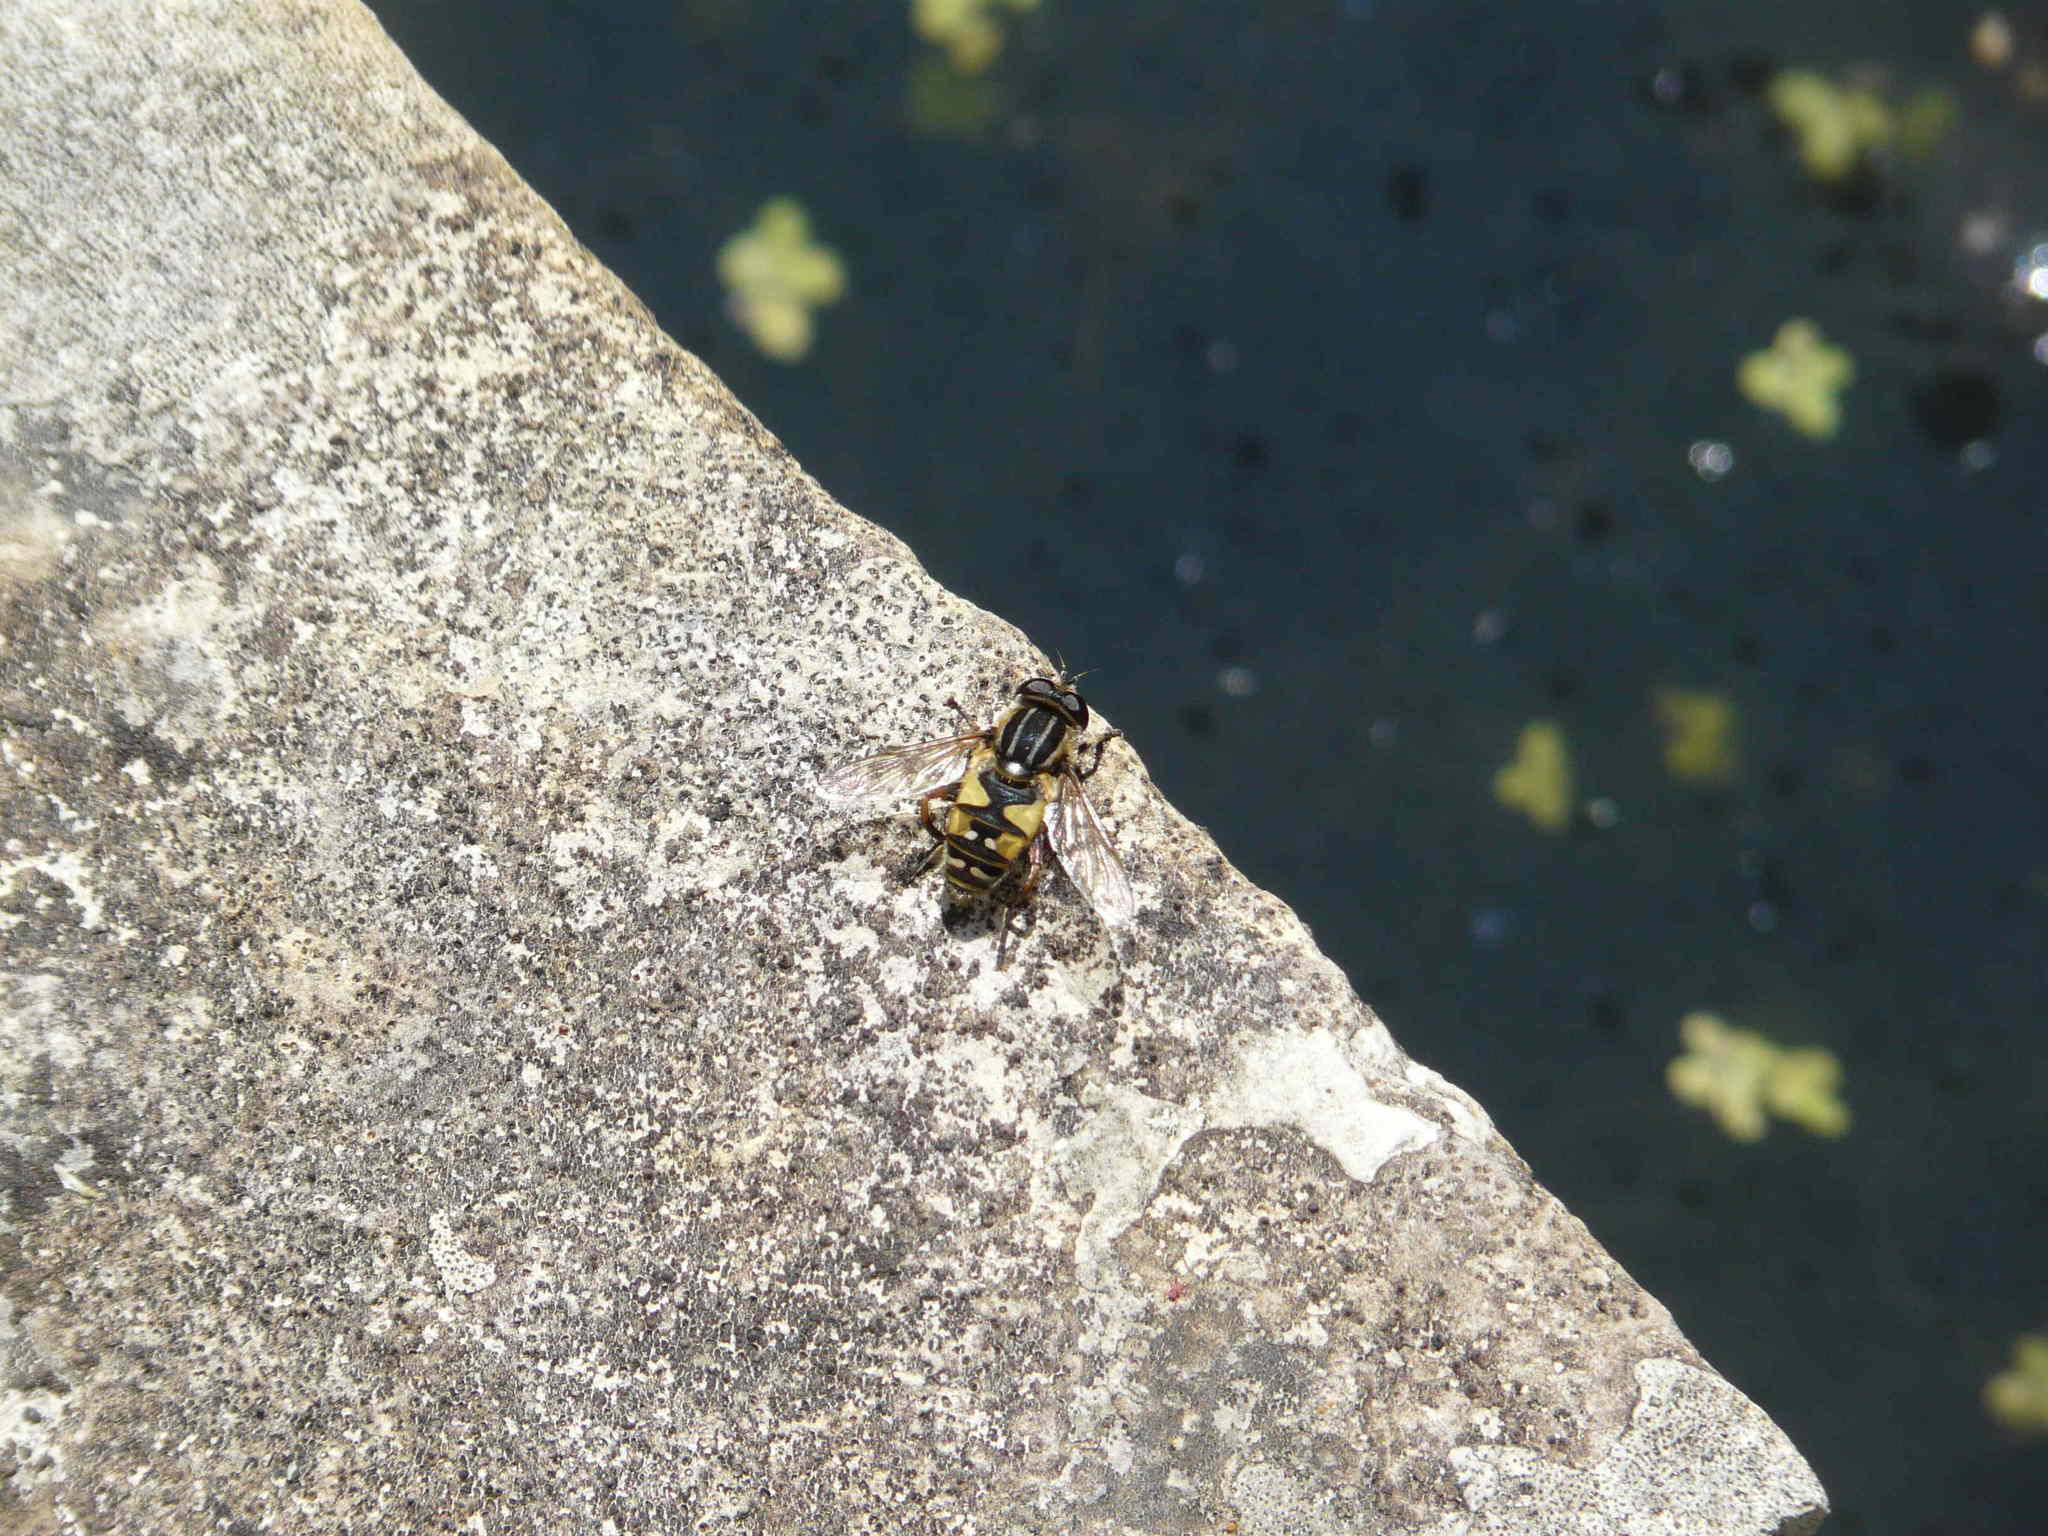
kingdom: Animalia
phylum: Arthropoda
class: Insecta
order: Diptera
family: Syrphidae
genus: Helophilus
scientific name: Helophilus pendulus
